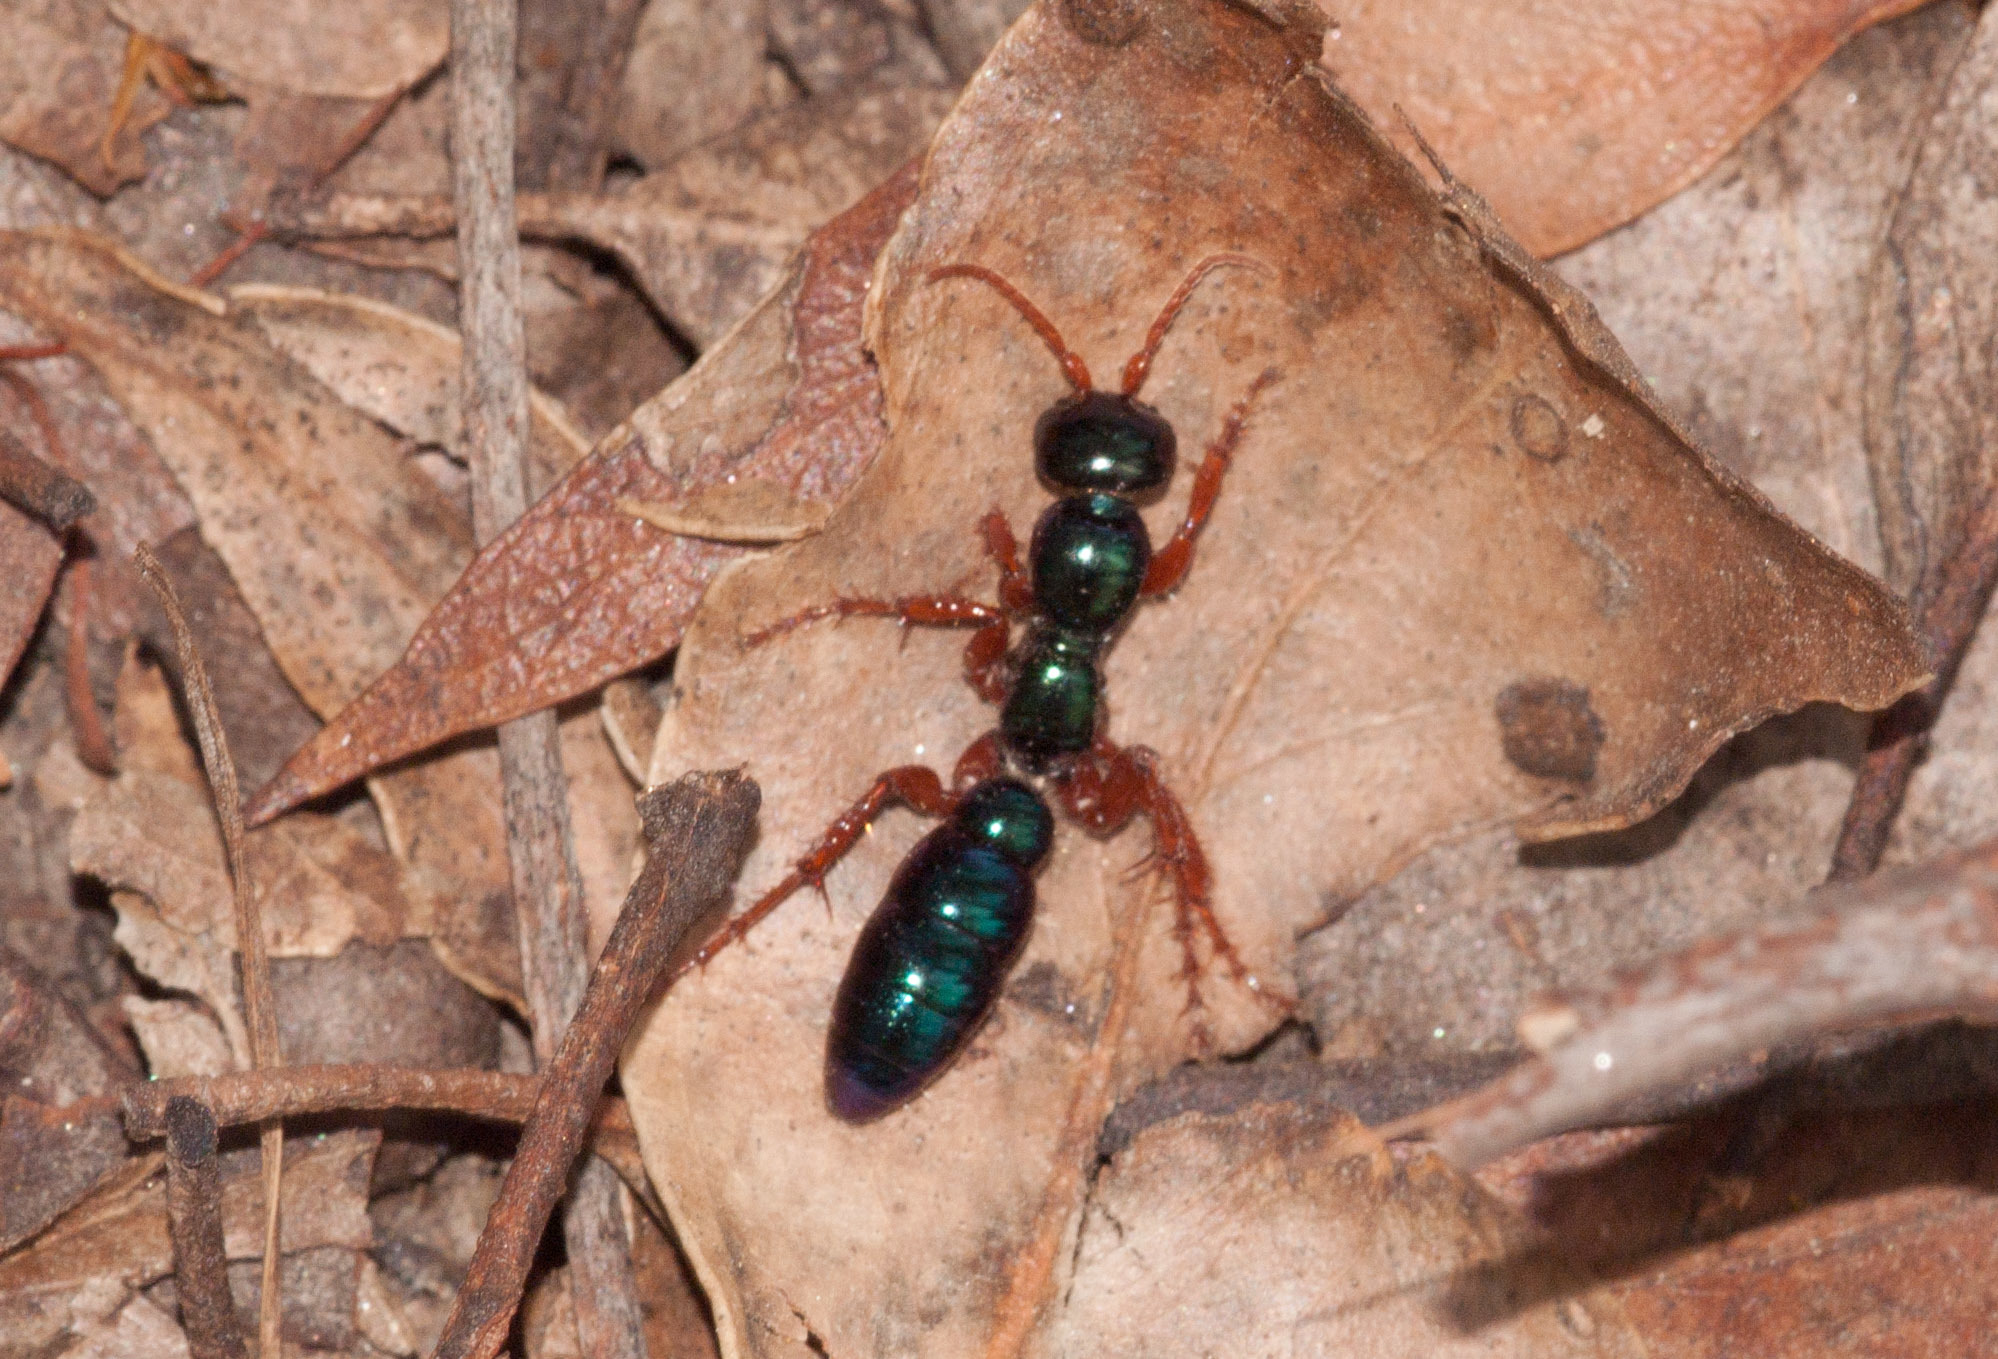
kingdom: Animalia
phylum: Arthropoda
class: Insecta
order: Hymenoptera
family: Tiphiidae
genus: Diamma
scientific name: Diamma
